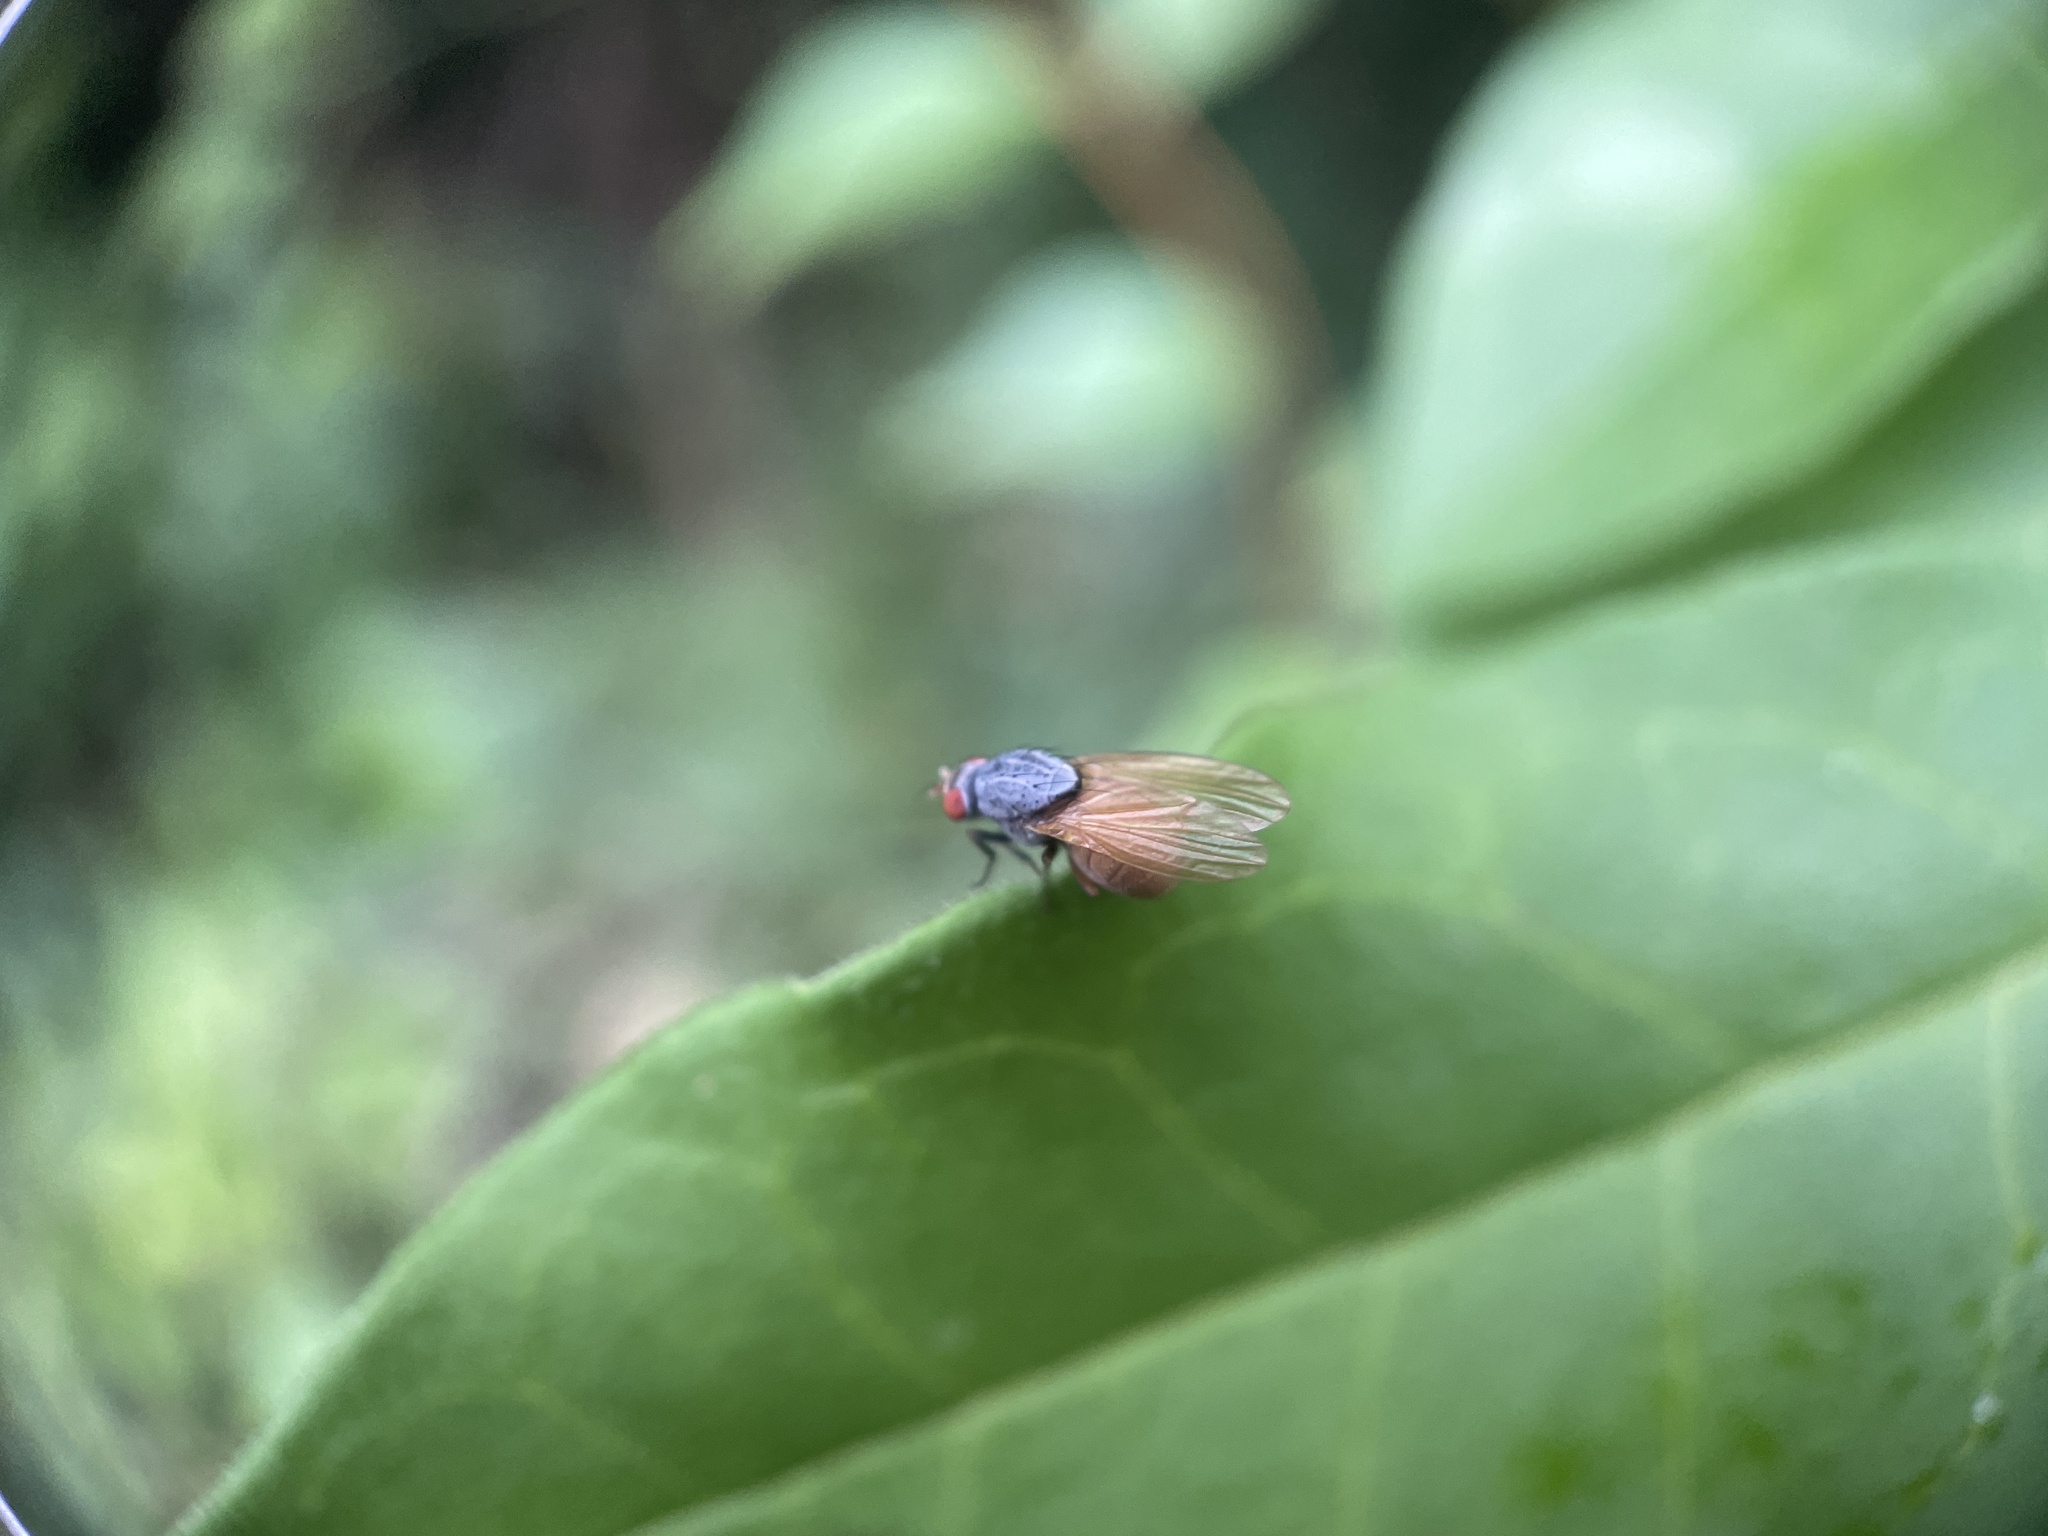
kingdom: Animalia
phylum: Arthropoda
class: Insecta
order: Diptera
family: Lauxaniidae
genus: Minettia
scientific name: Minettia lupulina
